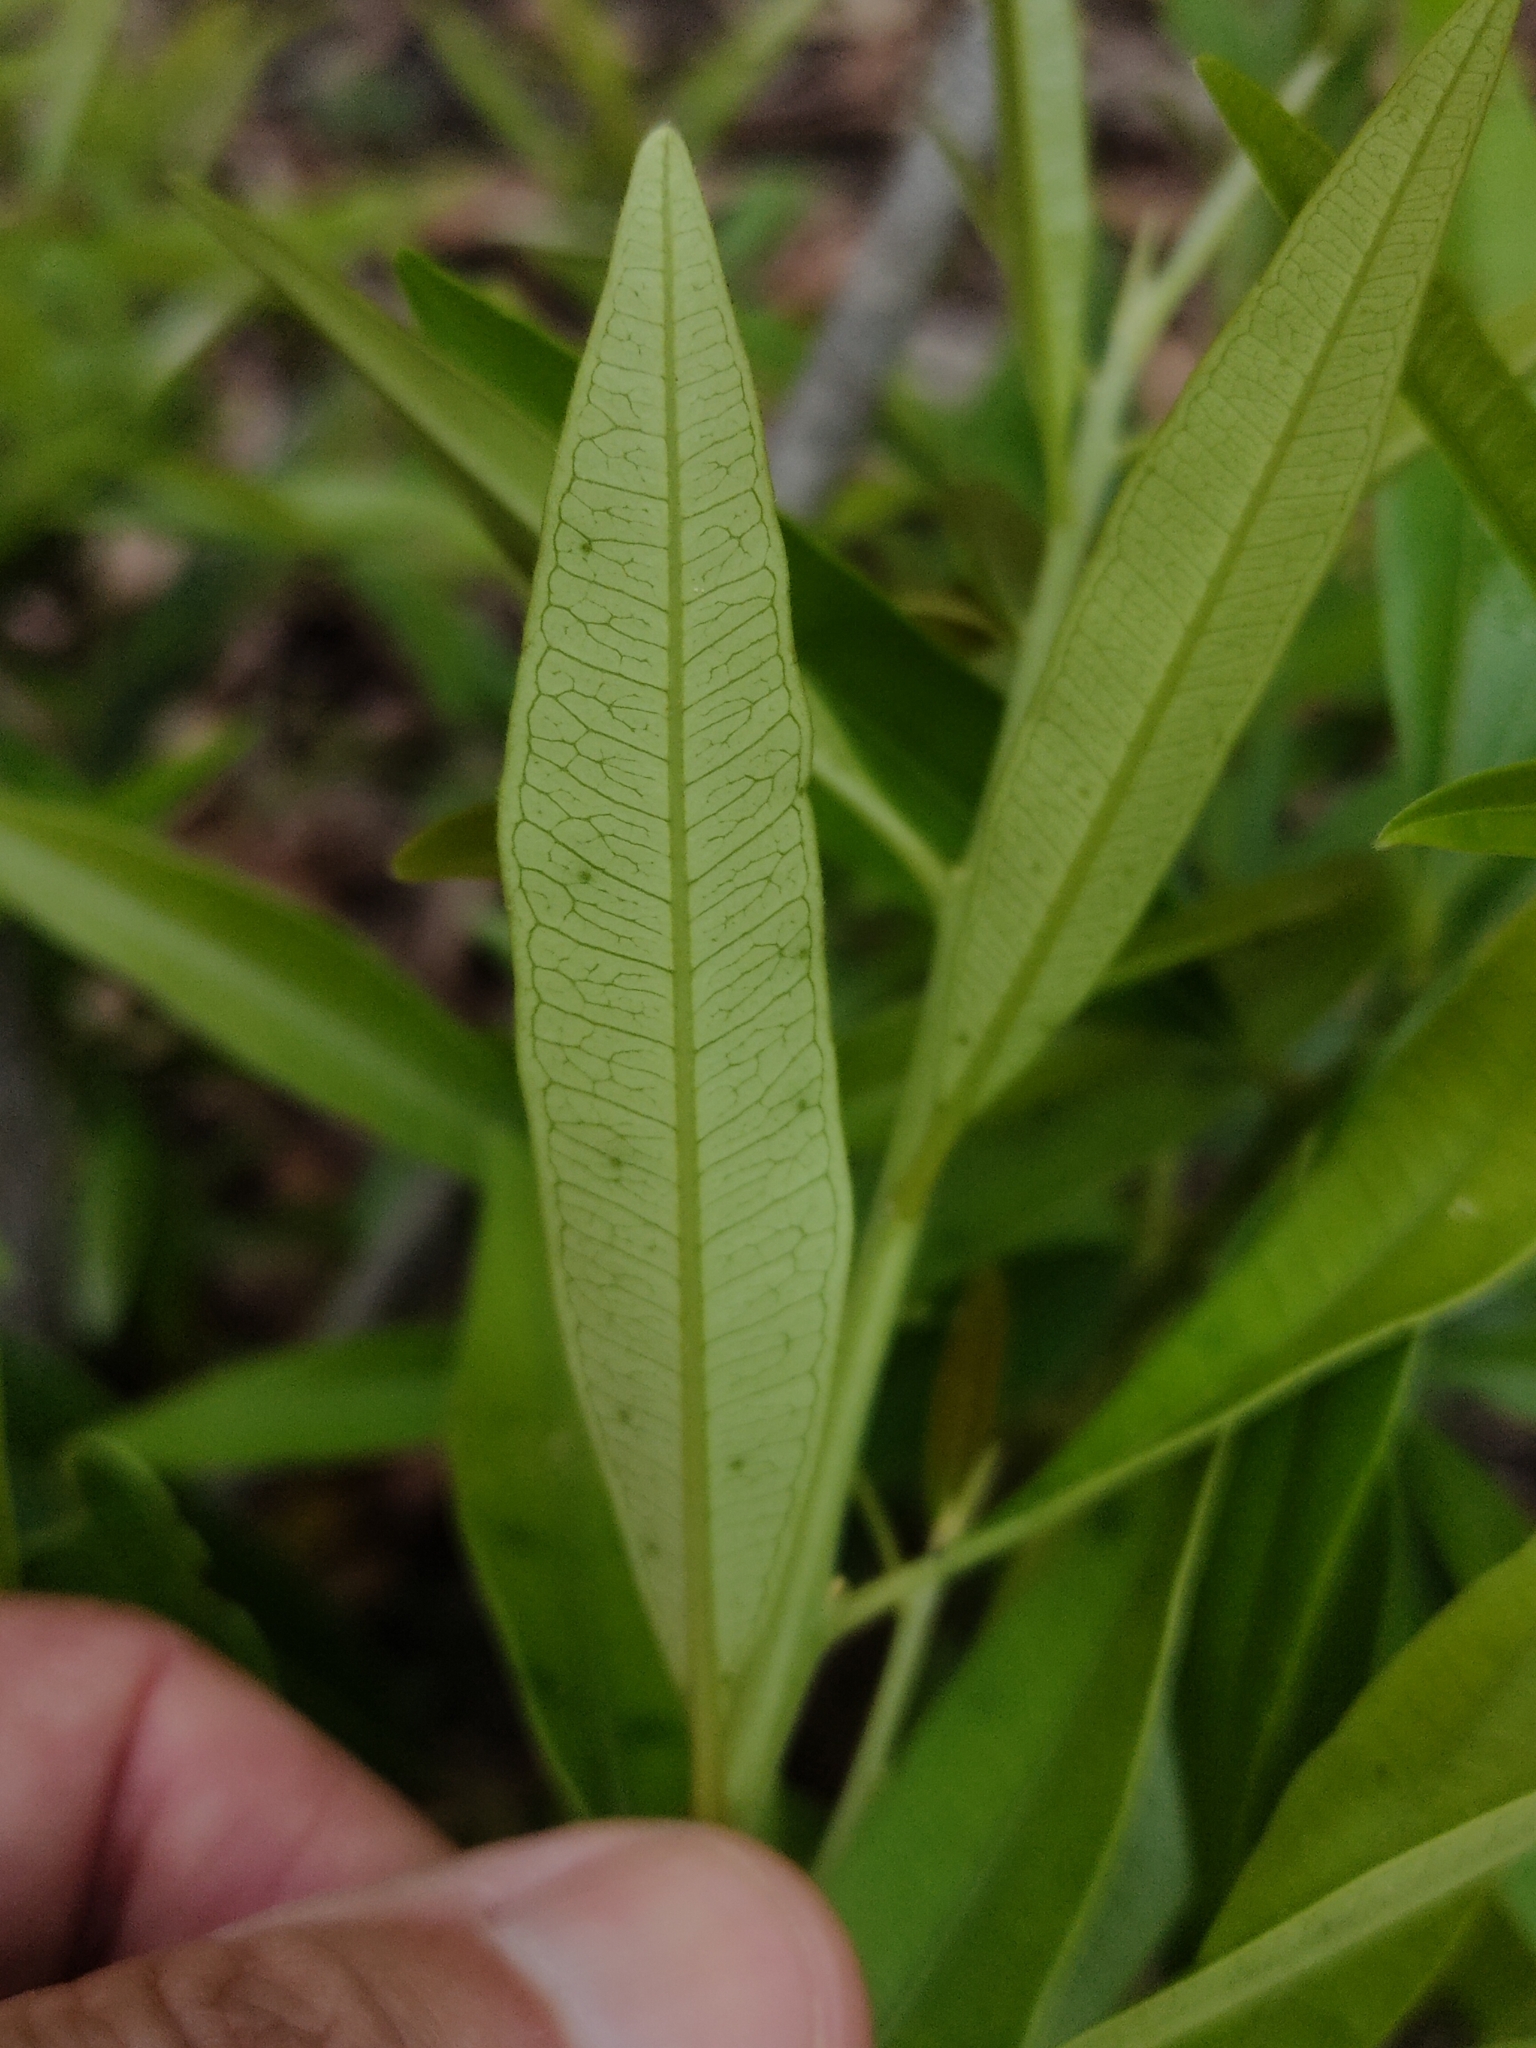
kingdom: Plantae
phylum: Tracheophyta
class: Magnoliopsida
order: Sapindales
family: Simaroubaceae
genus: Samadera
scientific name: Samadera bidwillii
